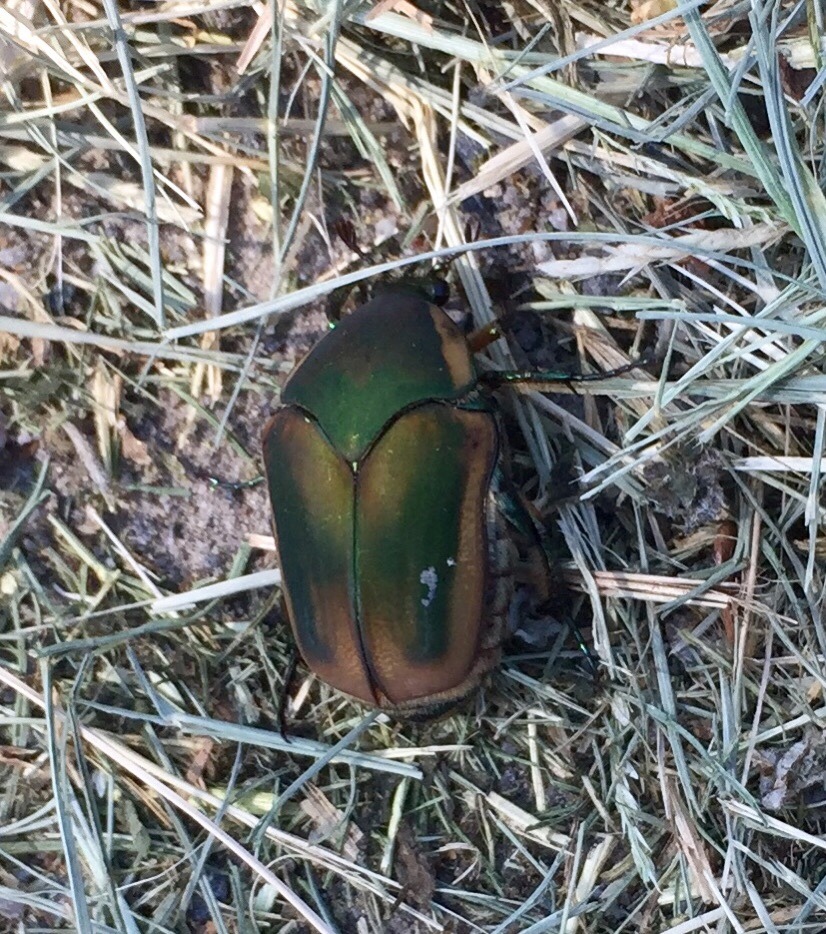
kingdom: Animalia
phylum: Arthropoda
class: Insecta
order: Coleoptera
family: Scarabaeidae
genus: Cotinis
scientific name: Cotinis nitida
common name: Common green june beetle
